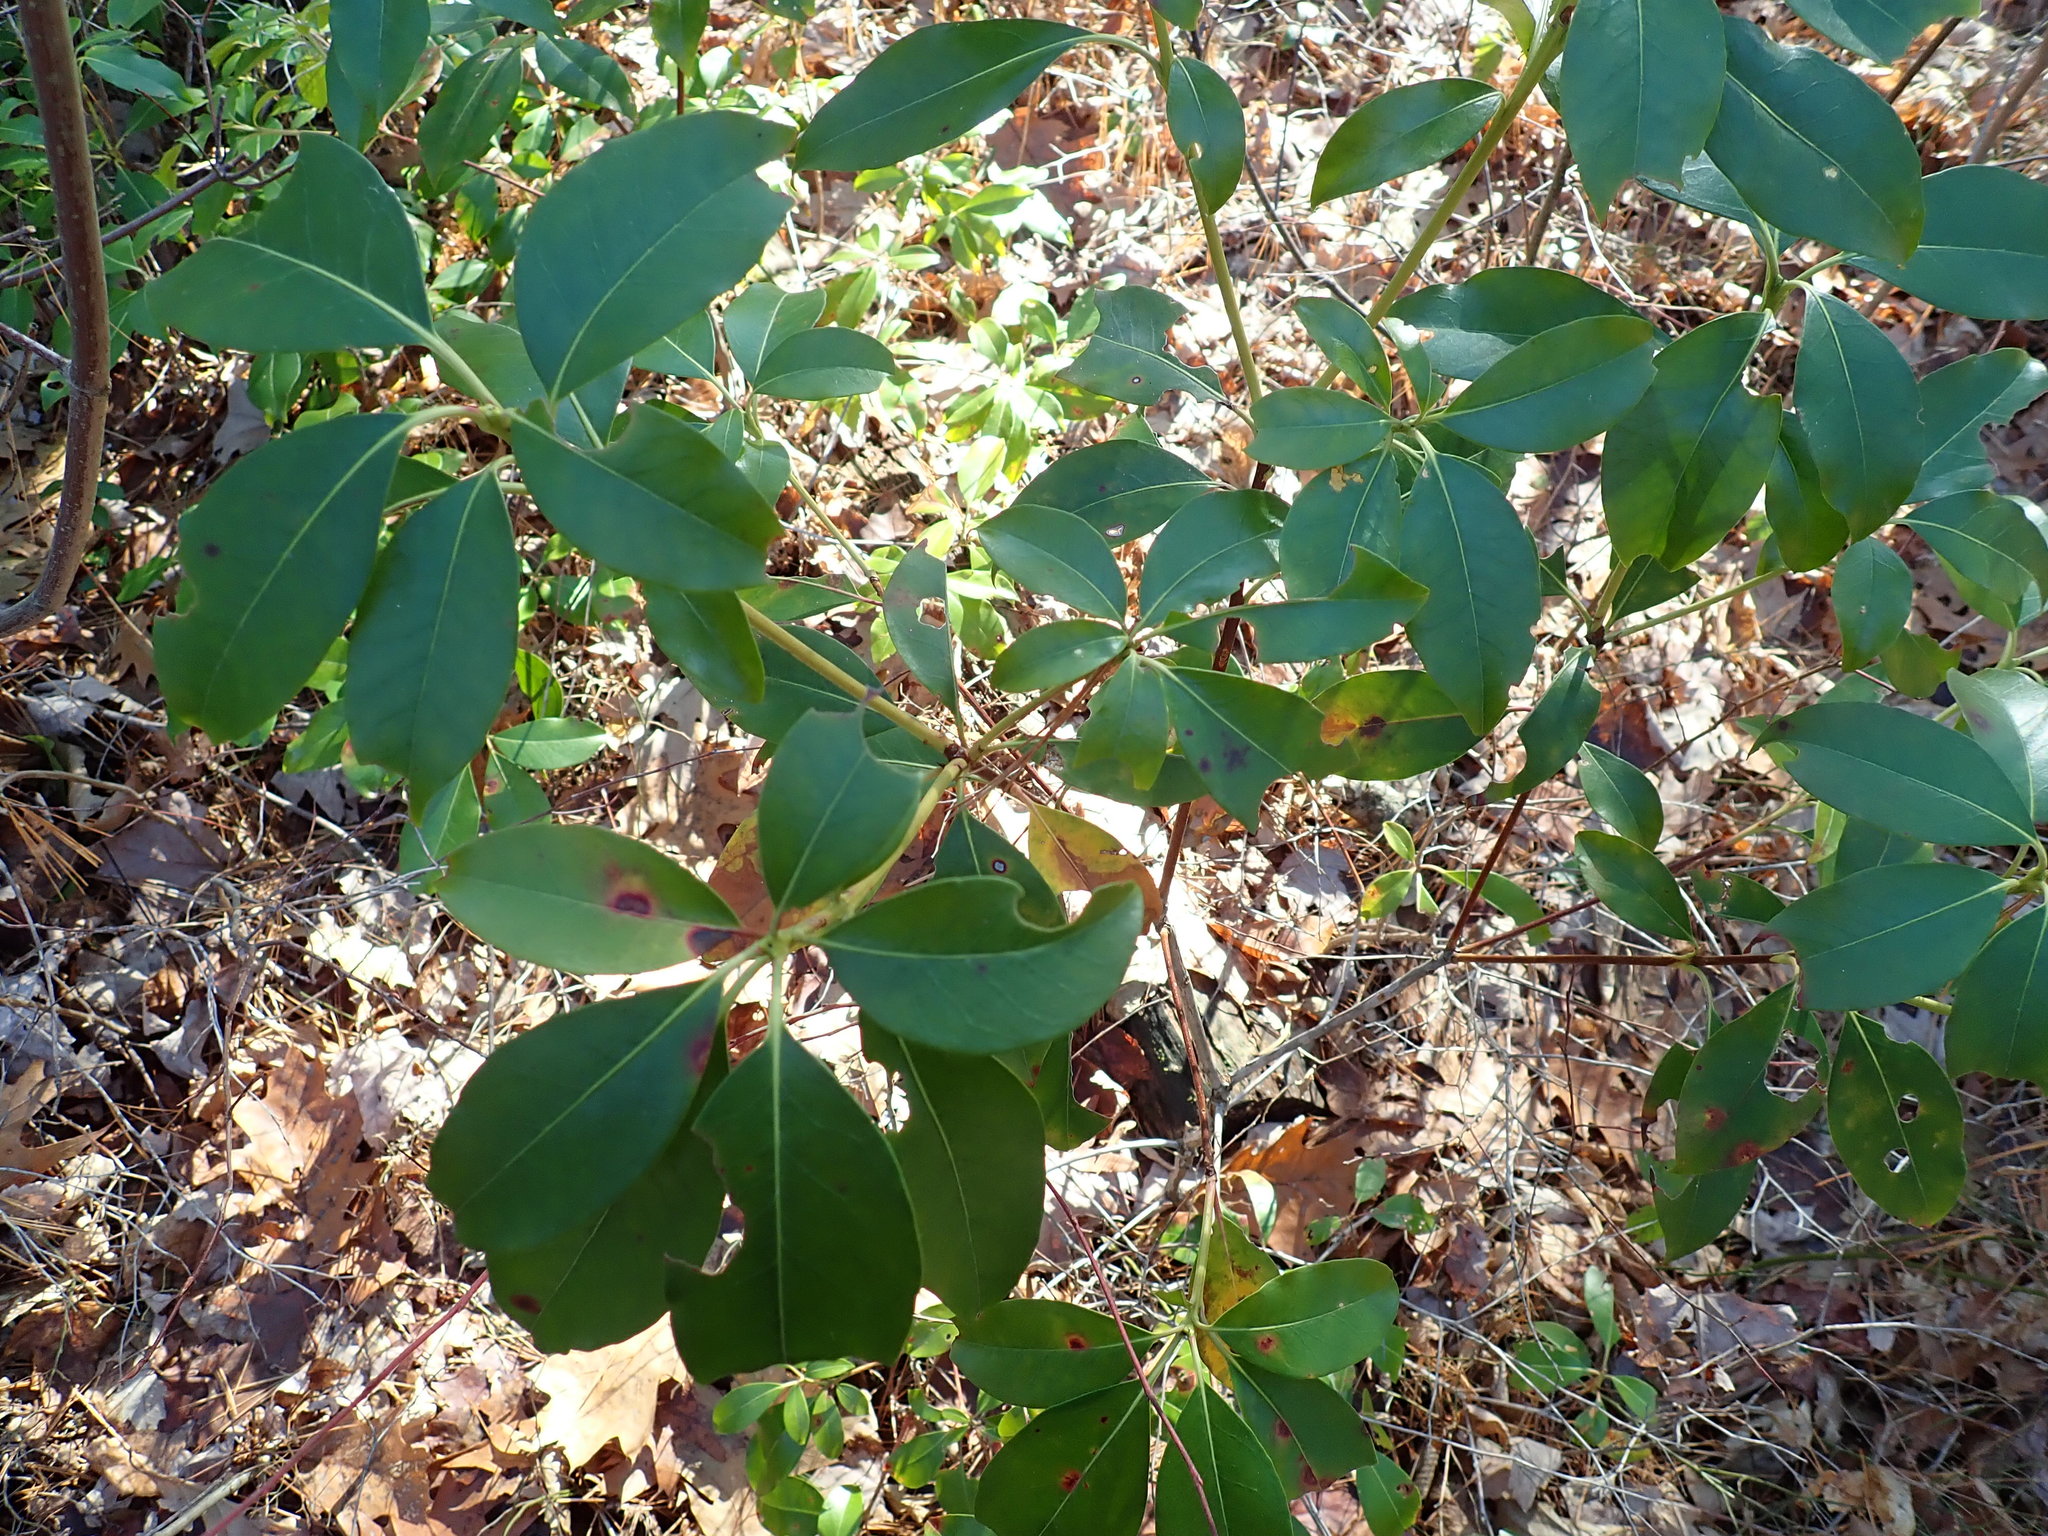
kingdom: Plantae
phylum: Tracheophyta
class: Magnoliopsida
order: Ericales
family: Ericaceae
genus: Kalmia
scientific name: Kalmia latifolia
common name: Mountain-laurel
